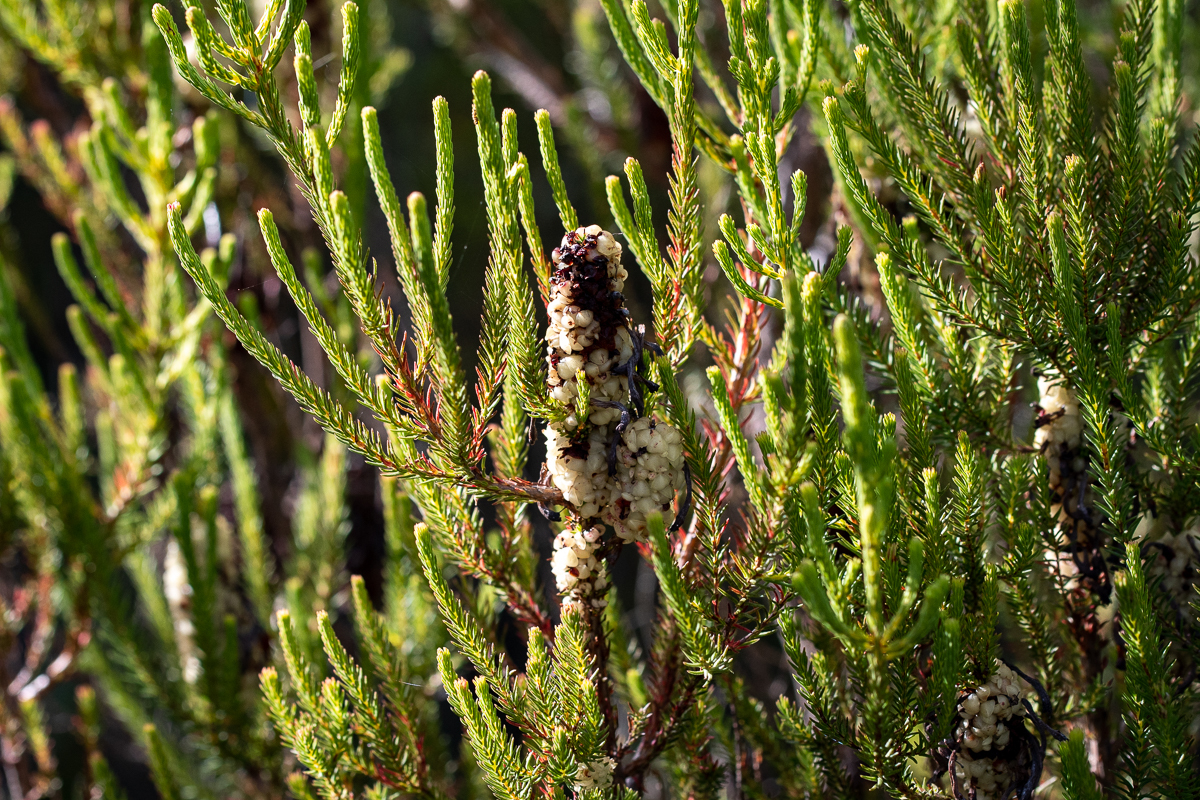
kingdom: Plantae
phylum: Tracheophyta
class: Magnoliopsida
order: Ericales
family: Ericaceae
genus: Erica
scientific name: Erica sessiliflora
